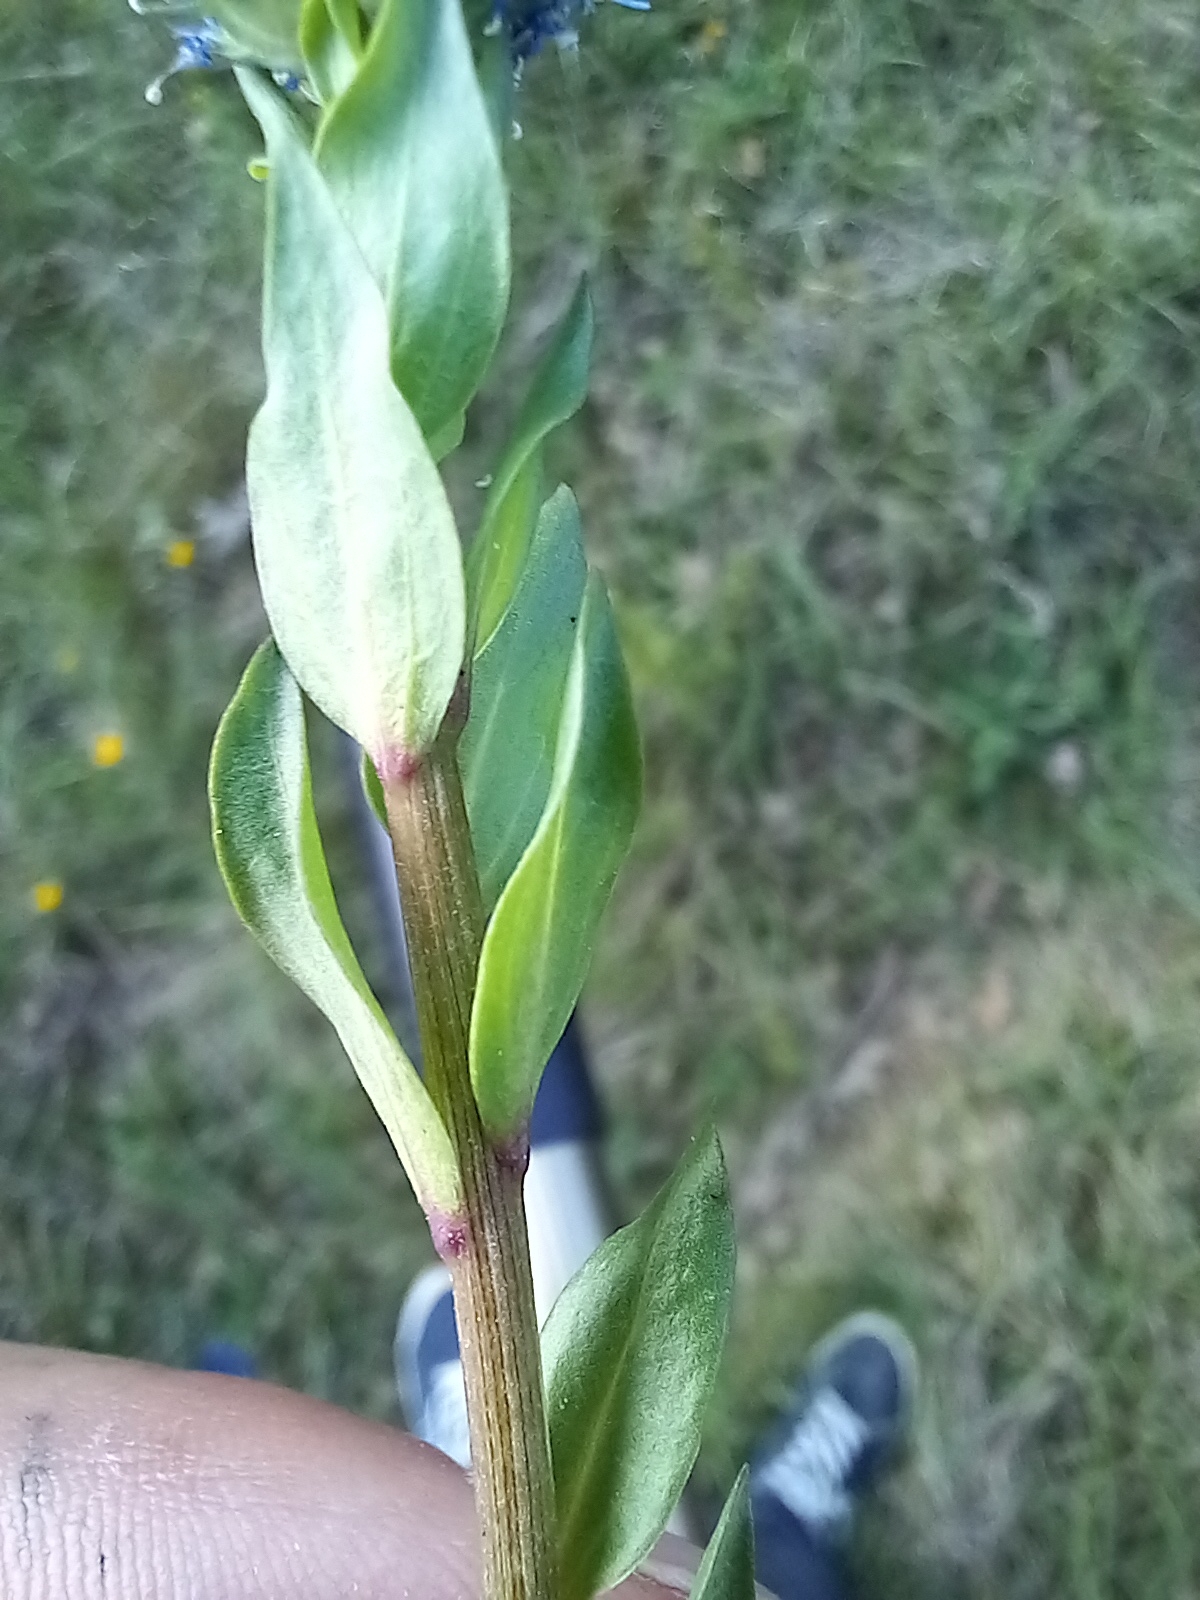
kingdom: Plantae
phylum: Tracheophyta
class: Magnoliopsida
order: Lamiales
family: Plantaginaceae
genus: Globularia
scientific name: Globularia bisnagarica
